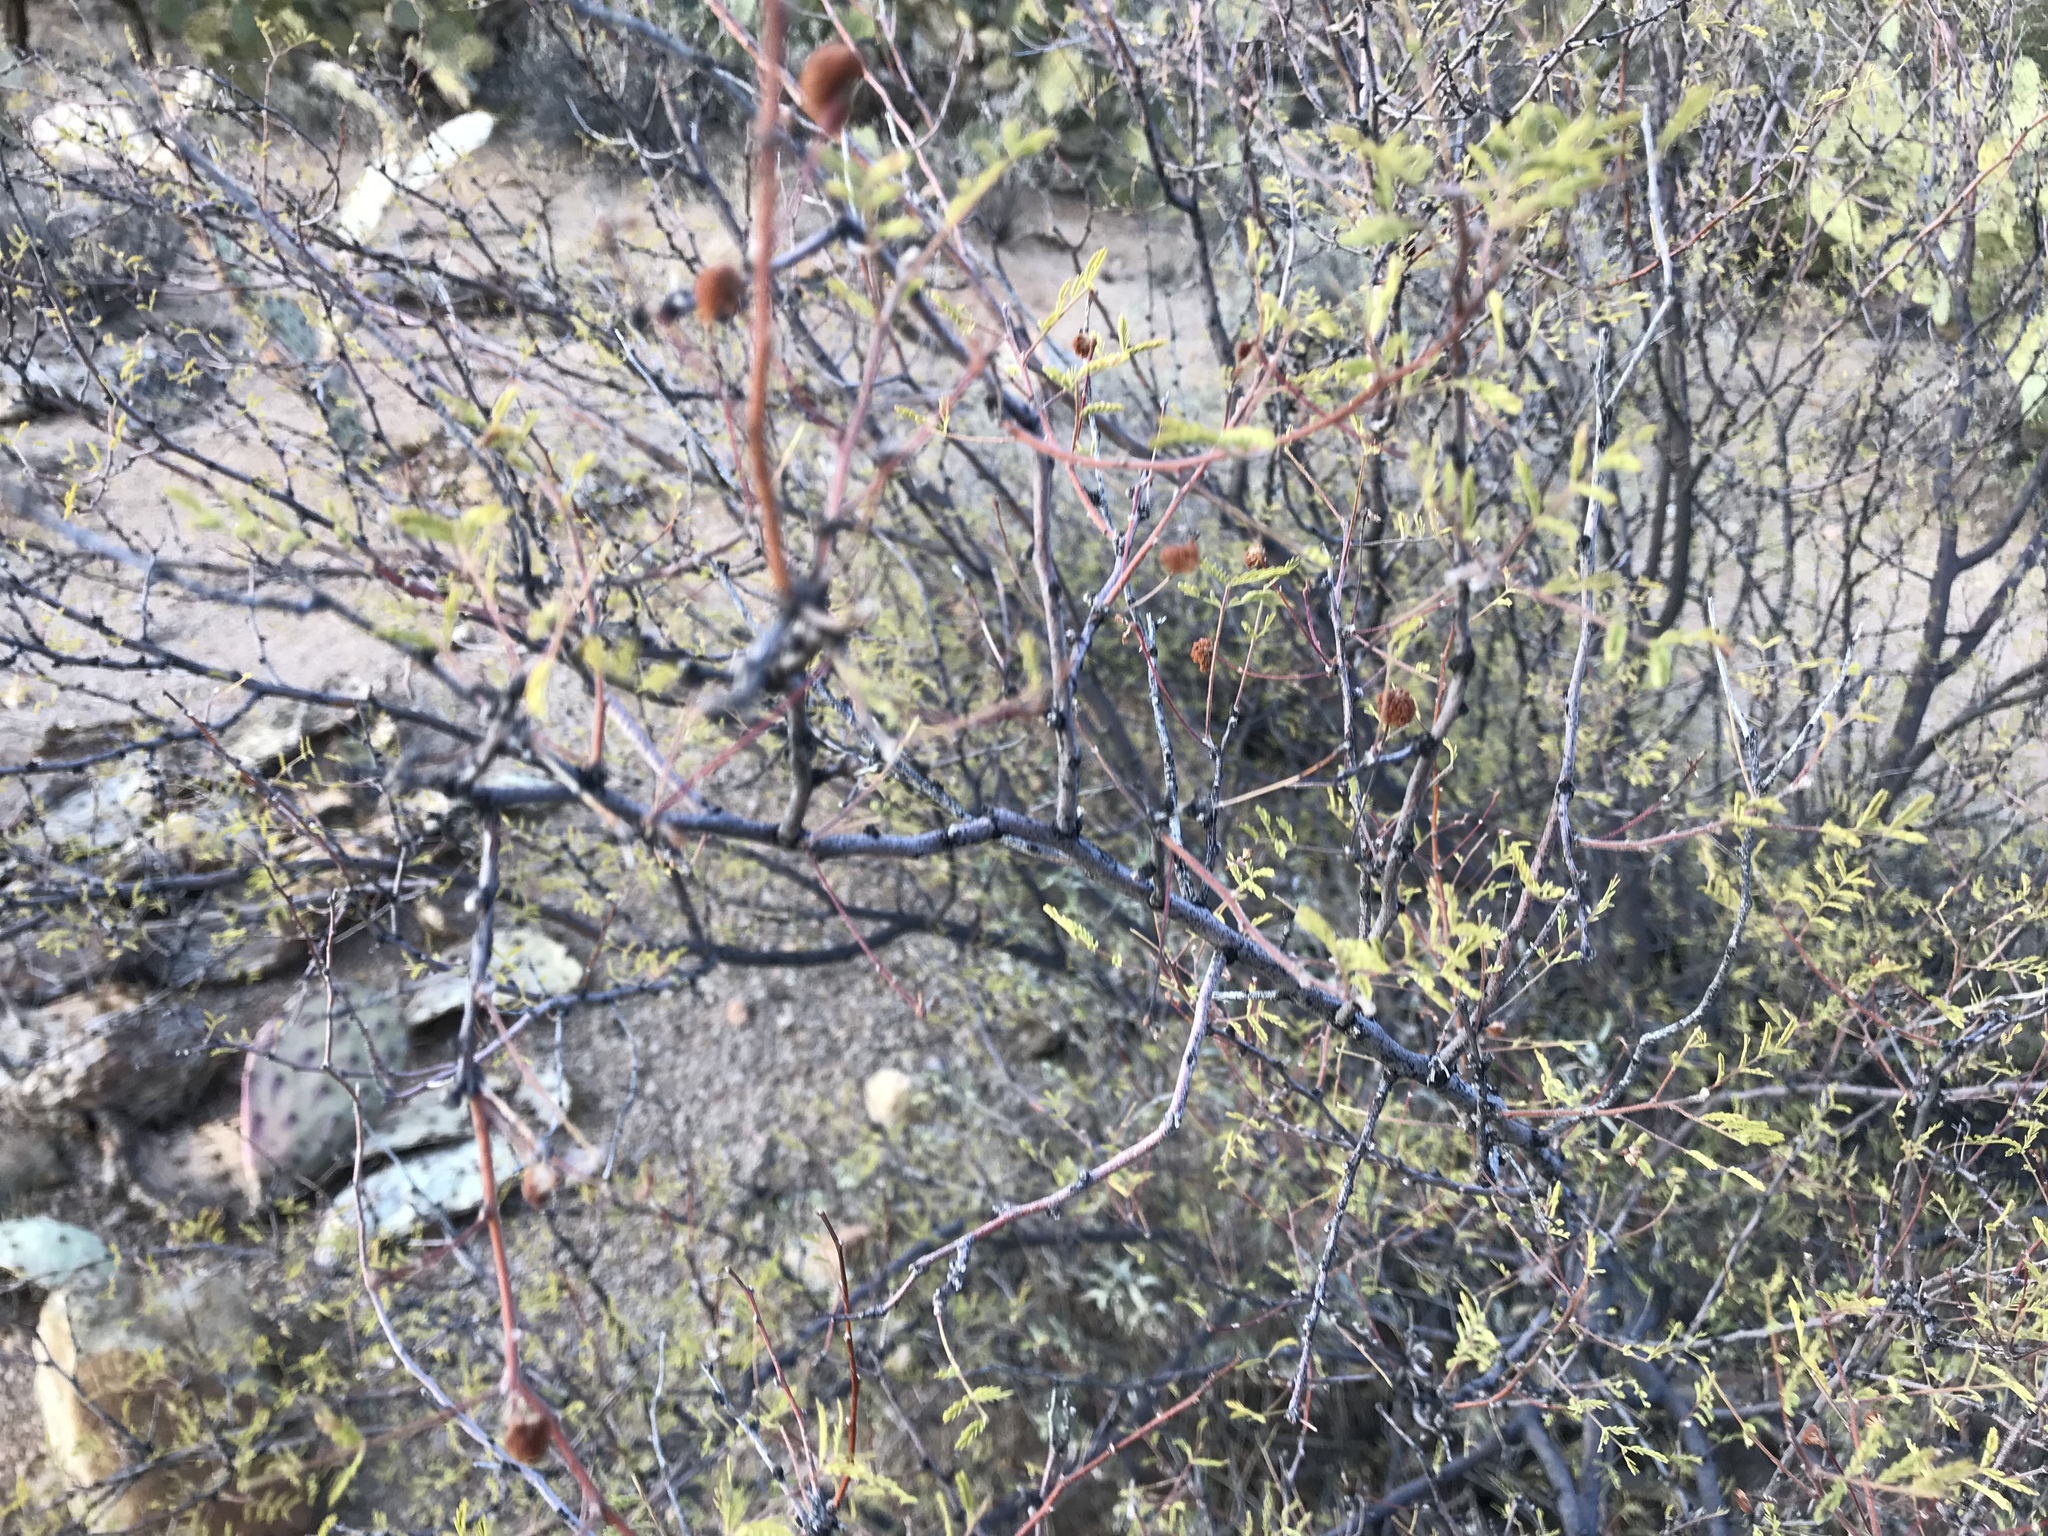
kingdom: Plantae
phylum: Tracheophyta
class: Magnoliopsida
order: Fabales
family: Fabaceae
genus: Vachellia
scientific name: Vachellia constricta
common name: Mescat acacia
